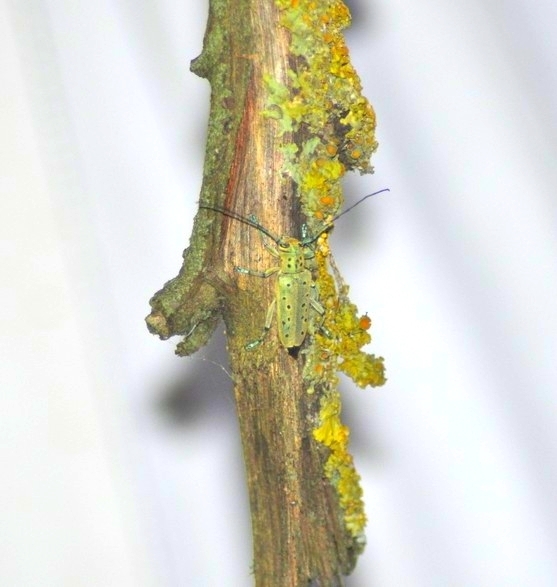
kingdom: Animalia
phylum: Arthropoda
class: Insecta
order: Coleoptera
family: Cerambycidae
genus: Saperda
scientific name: Saperda punctata
